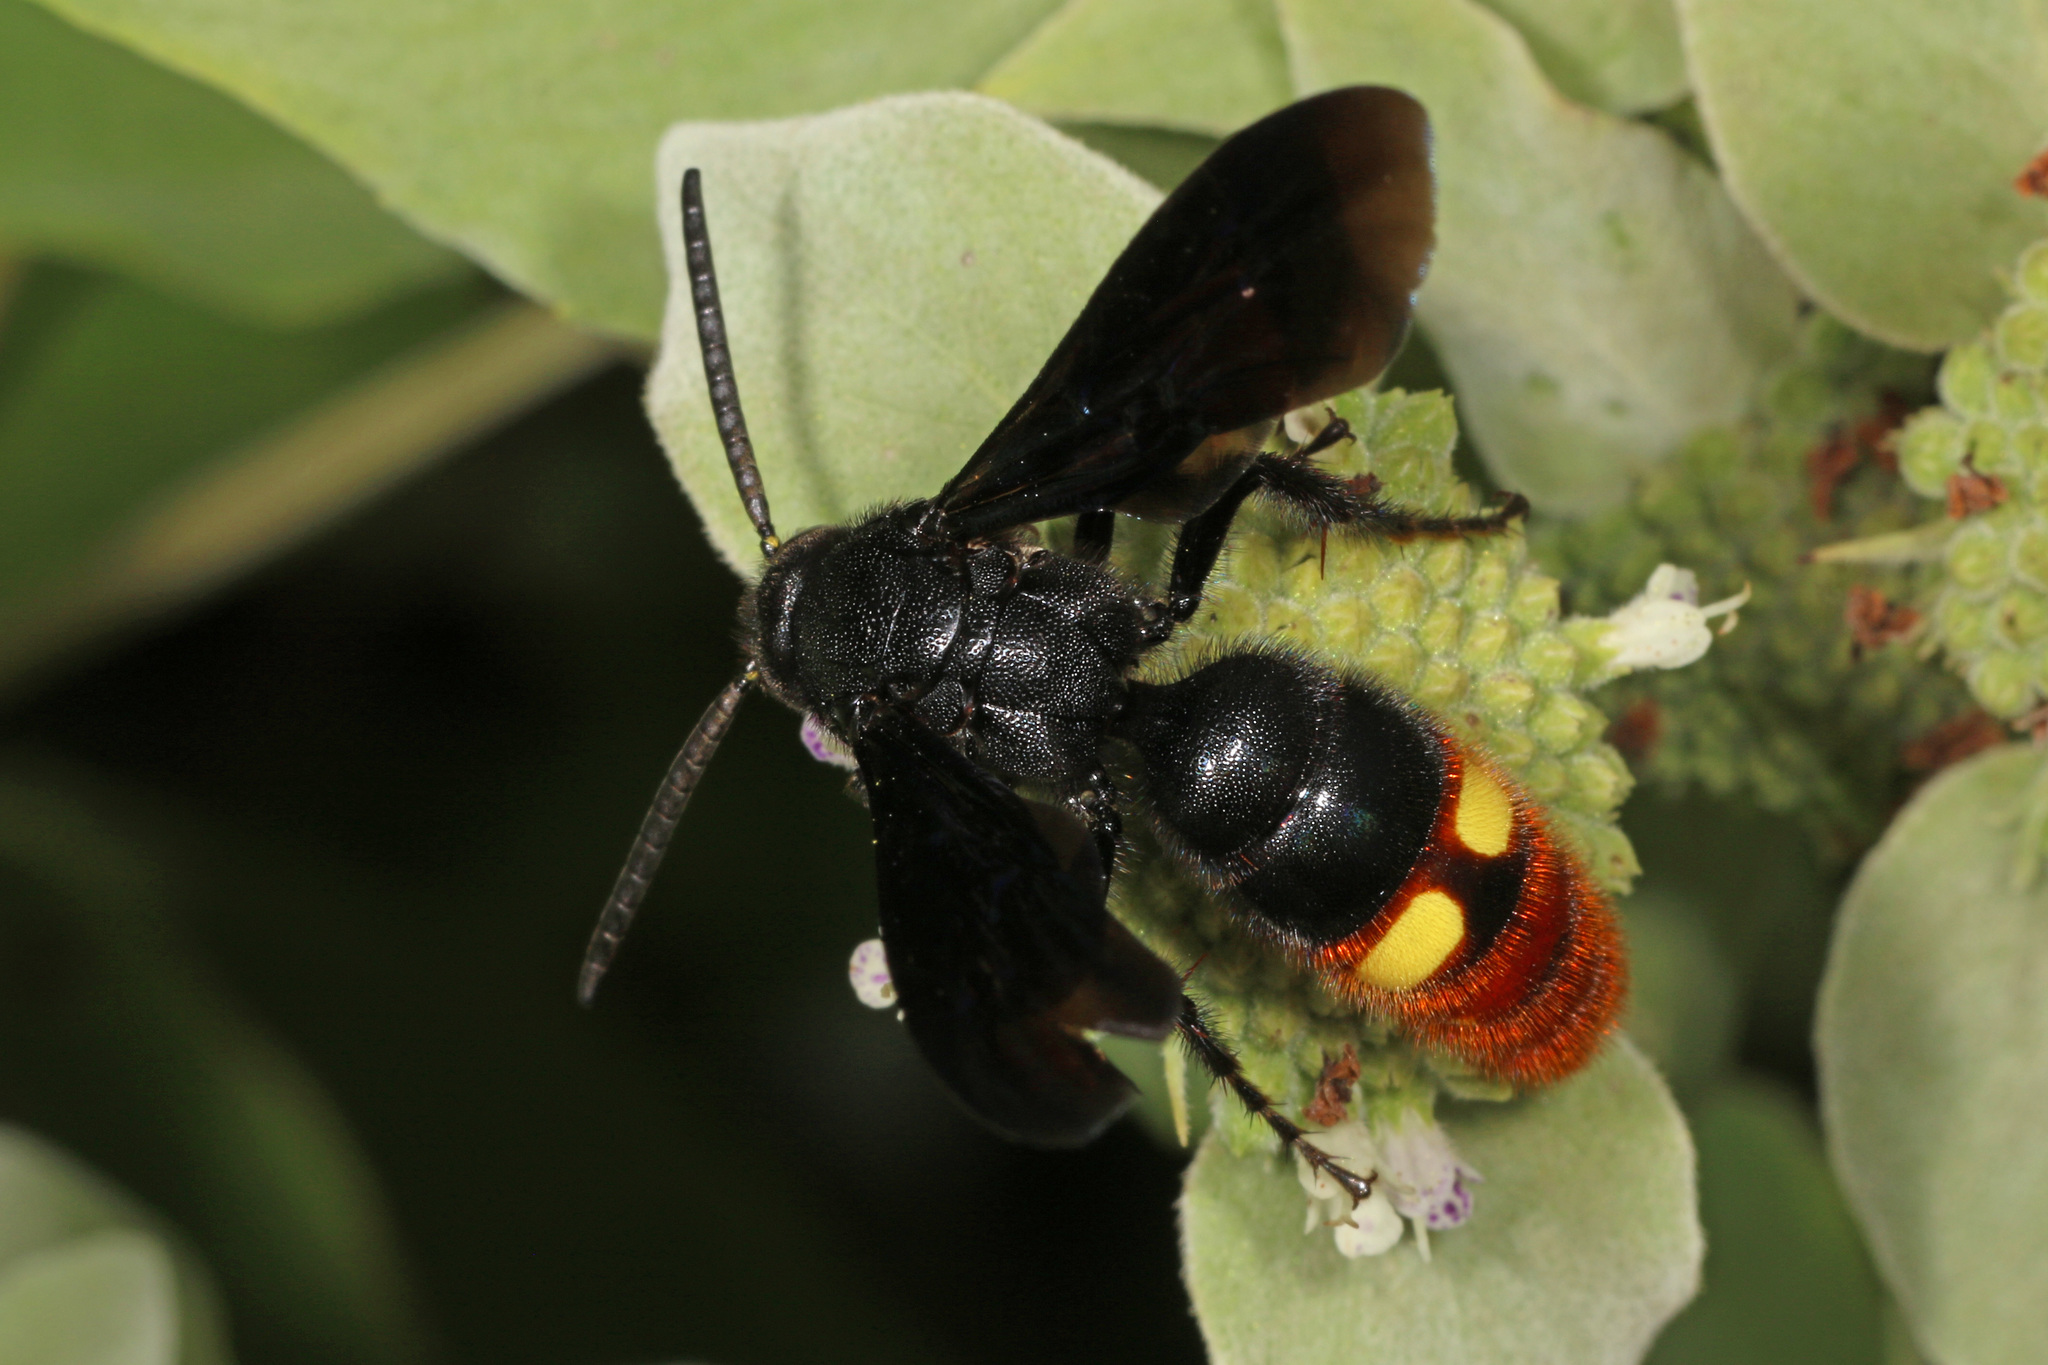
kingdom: Animalia
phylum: Arthropoda
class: Insecta
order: Hymenoptera
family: Scoliidae
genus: Scolia
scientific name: Scolia dubia
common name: Blue-winged scoliid wasp
